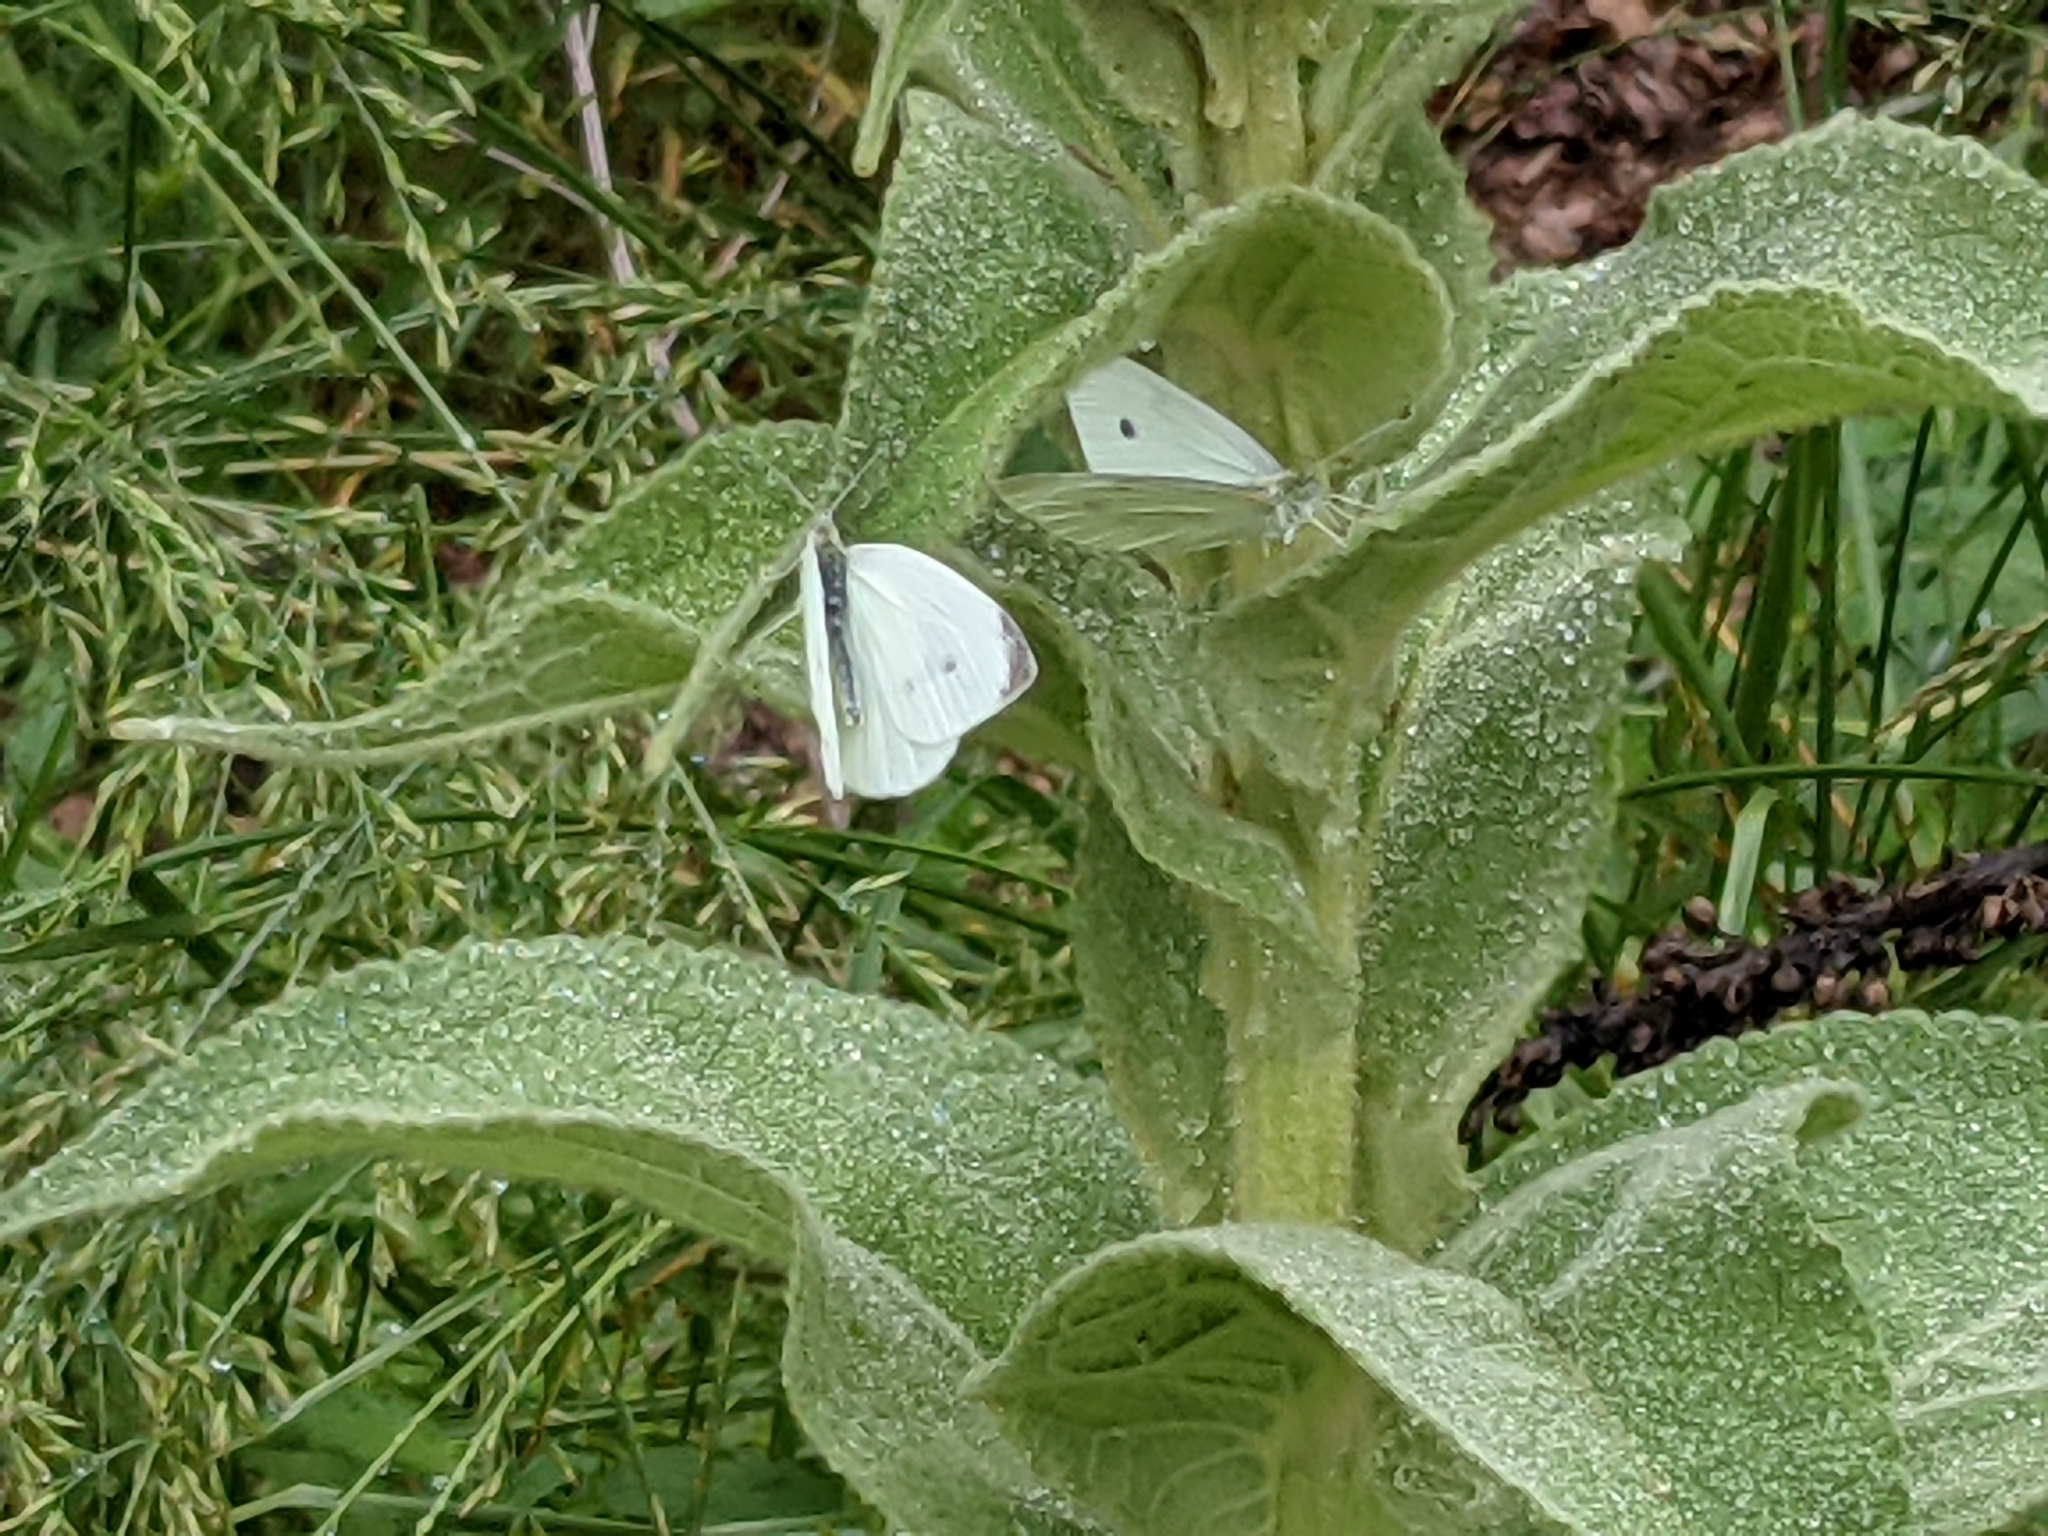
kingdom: Animalia
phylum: Arthropoda
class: Insecta
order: Lepidoptera
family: Pieridae
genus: Pieris
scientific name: Pieris rapae
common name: Small white
